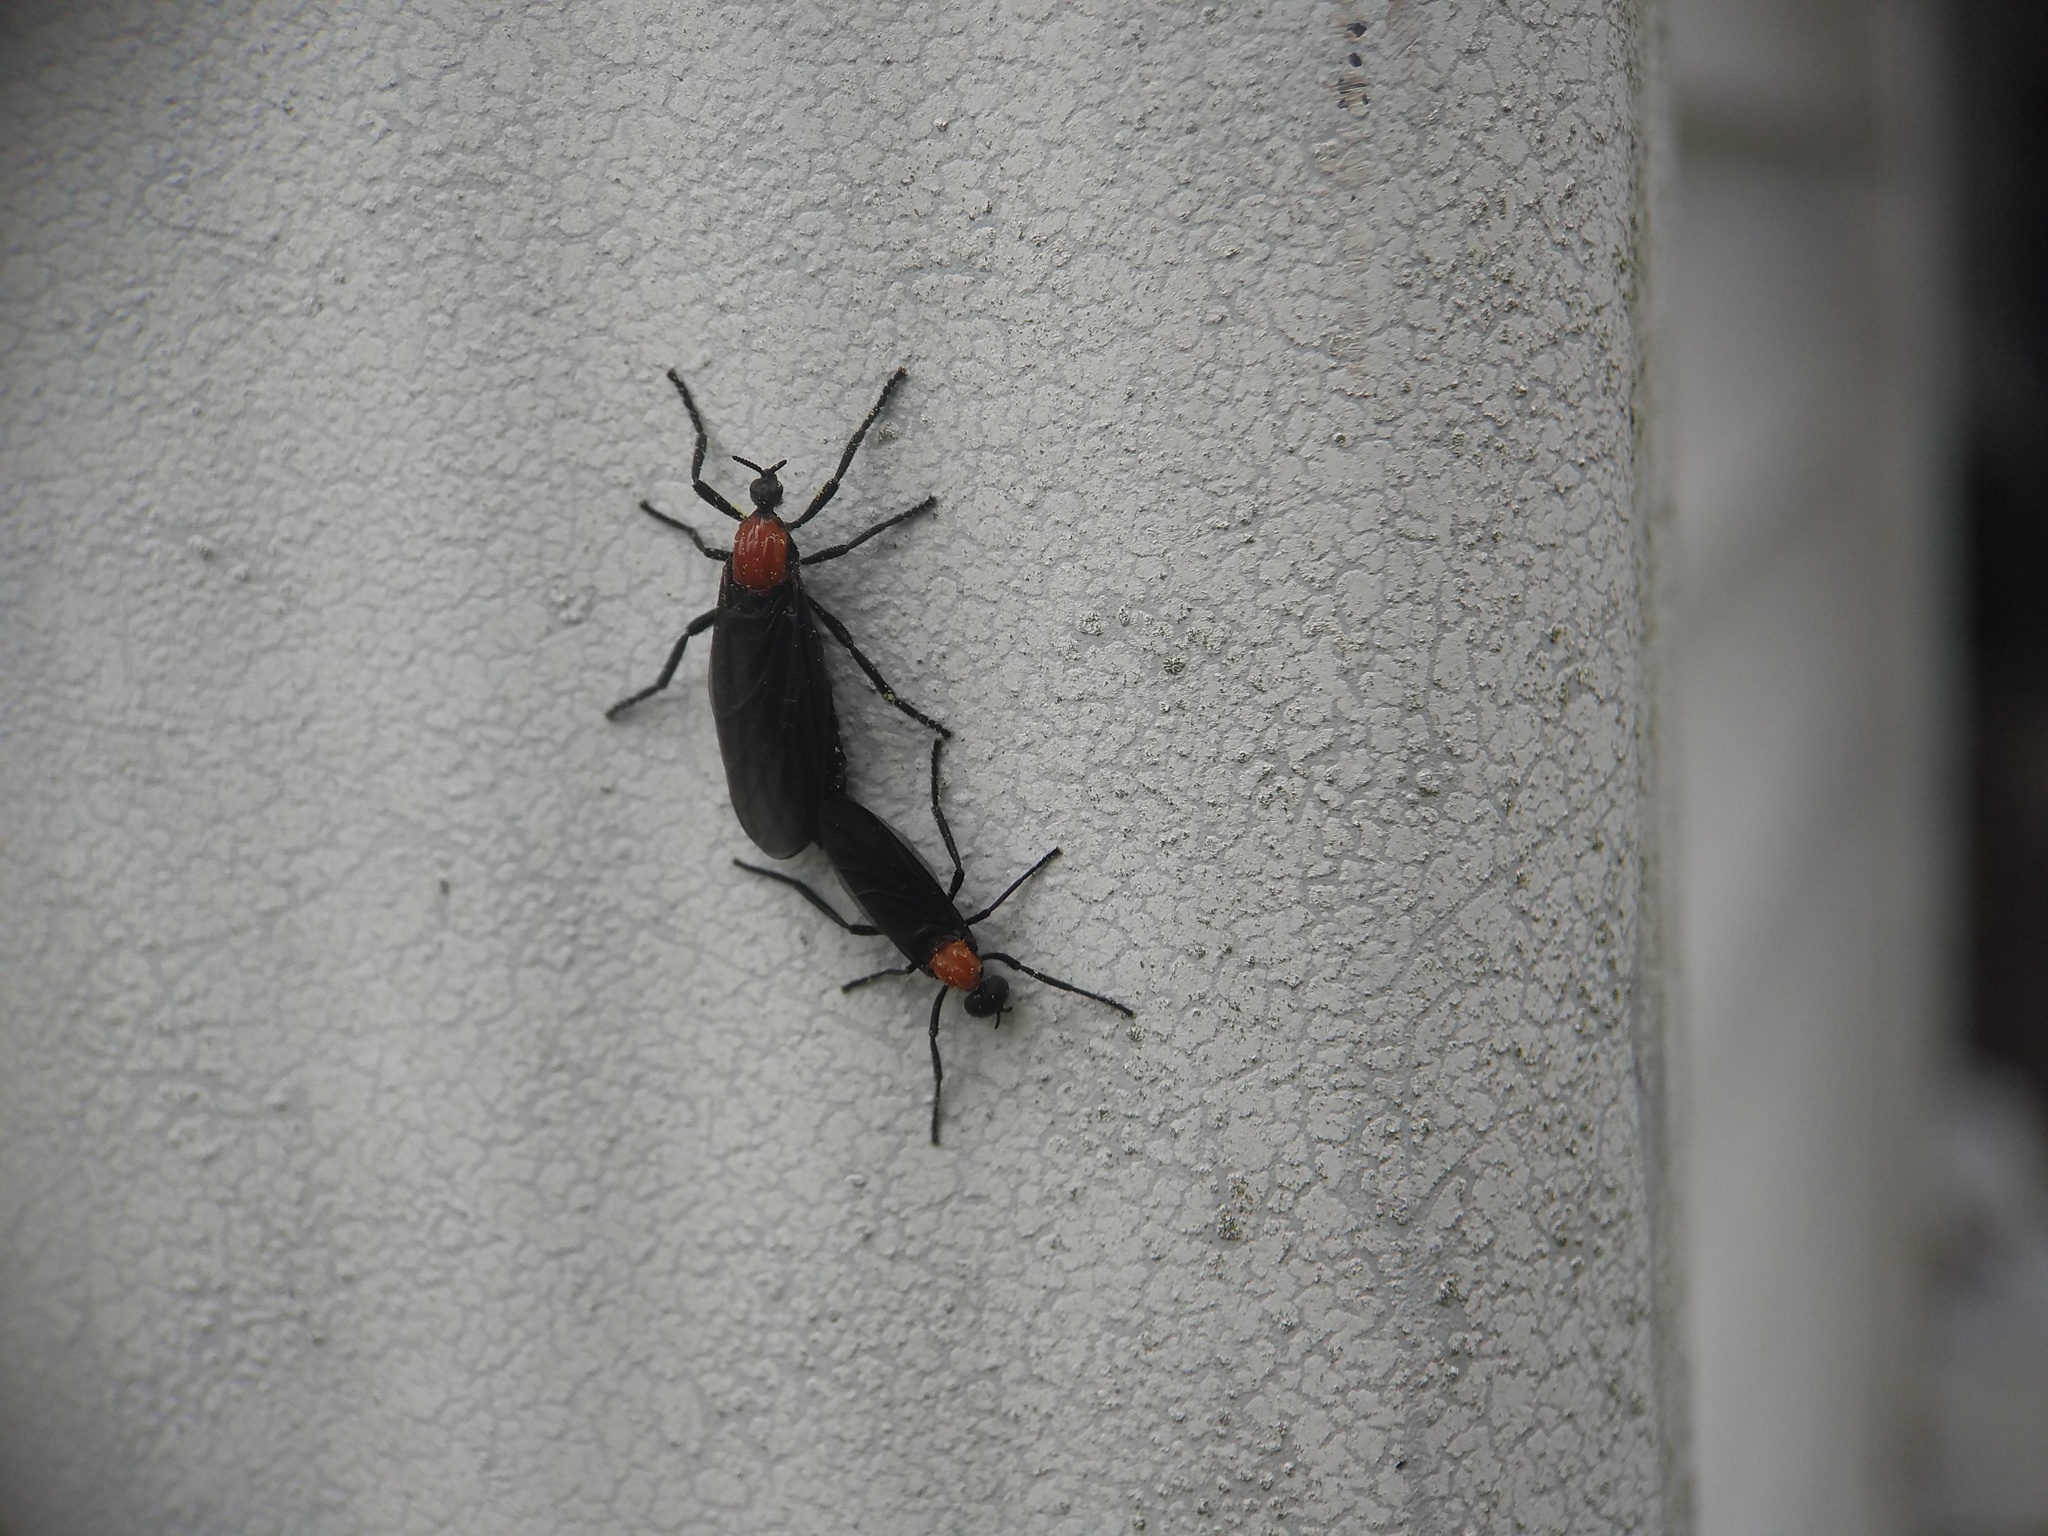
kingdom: Animalia
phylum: Arthropoda
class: Insecta
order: Diptera
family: Bibionidae
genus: Plecia
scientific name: Plecia nearctica
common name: March fly
